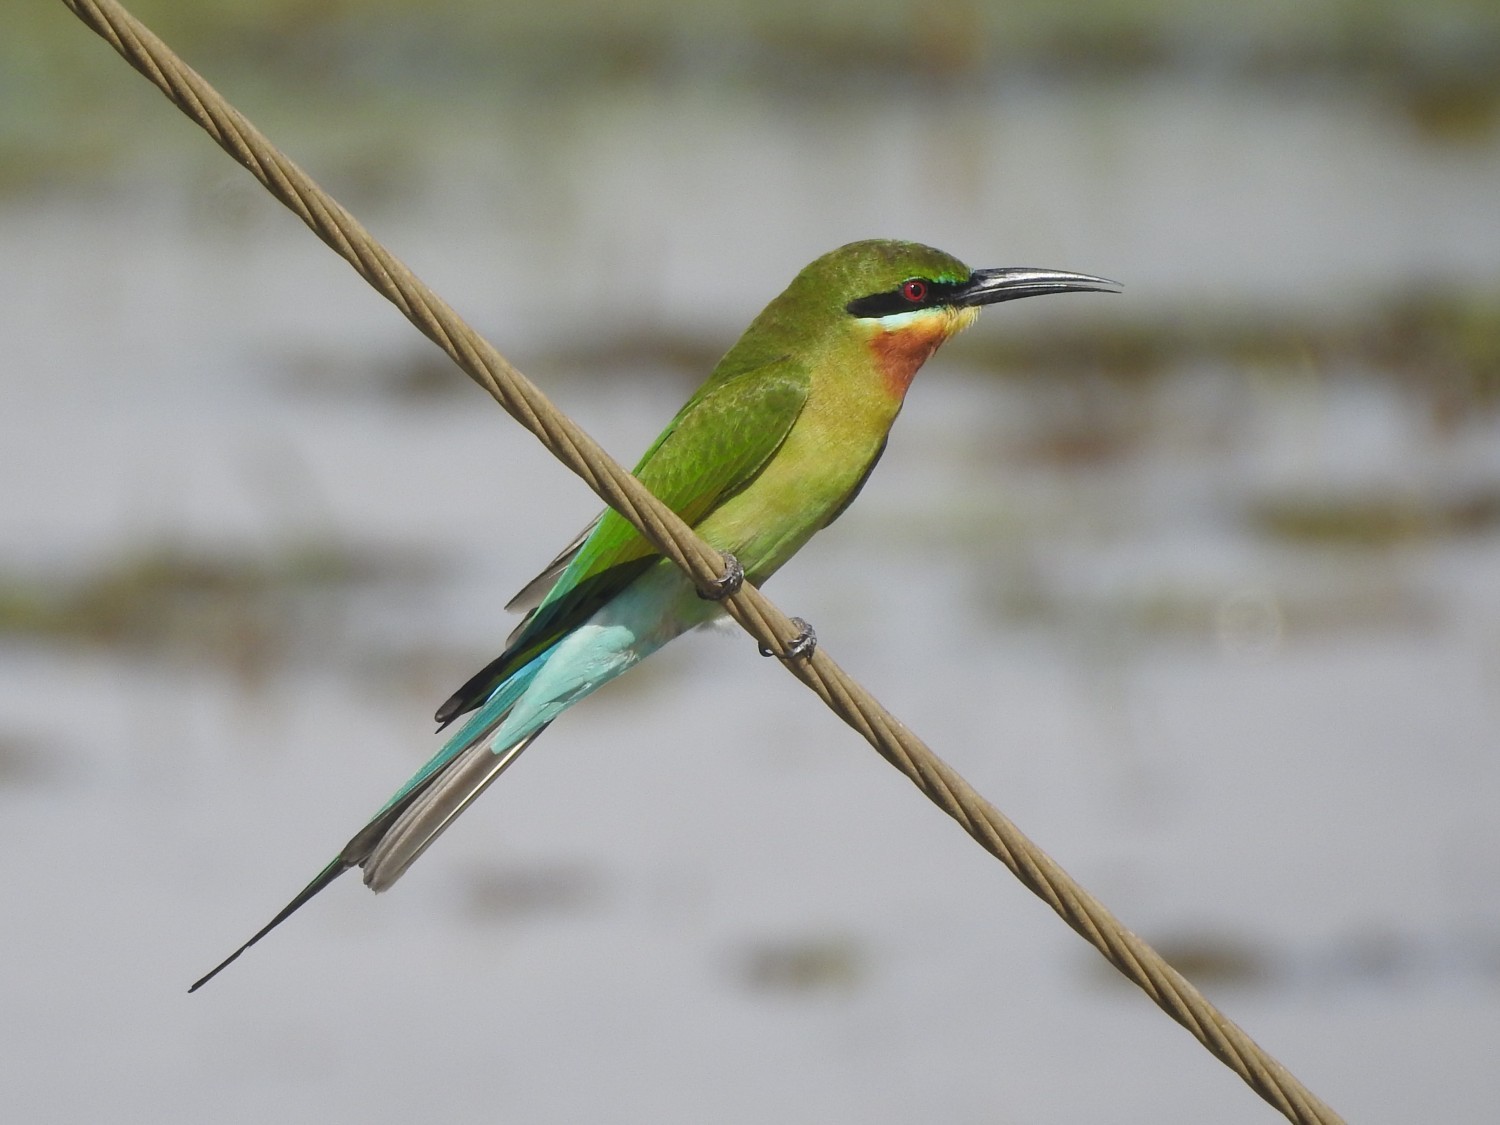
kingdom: Animalia
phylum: Chordata
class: Aves
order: Coraciiformes
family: Meropidae
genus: Merops
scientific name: Merops philippinus
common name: Blue-tailed bee-eater
